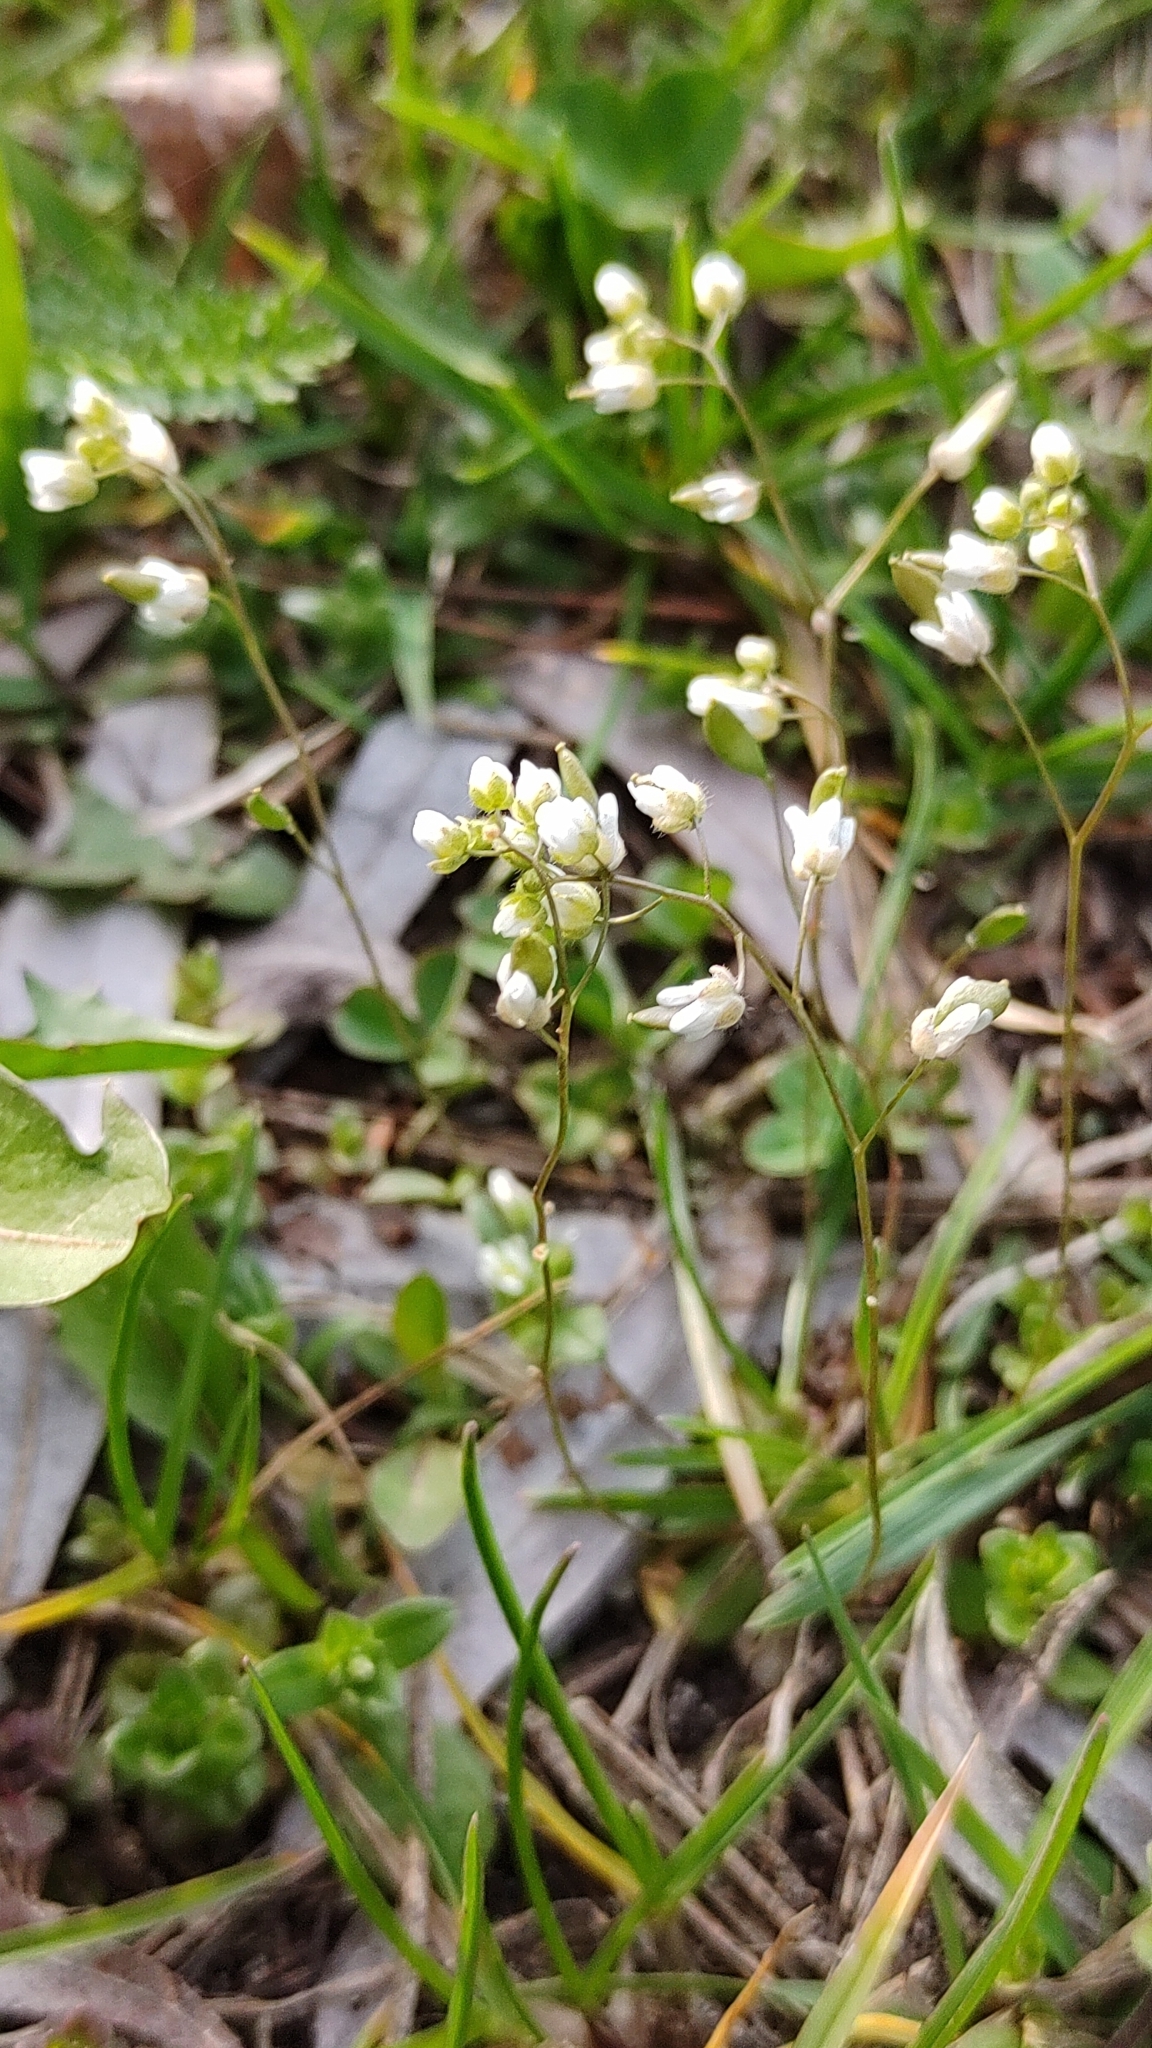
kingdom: Plantae
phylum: Tracheophyta
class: Magnoliopsida
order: Brassicales
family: Brassicaceae
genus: Draba
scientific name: Draba verna
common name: Spring draba
